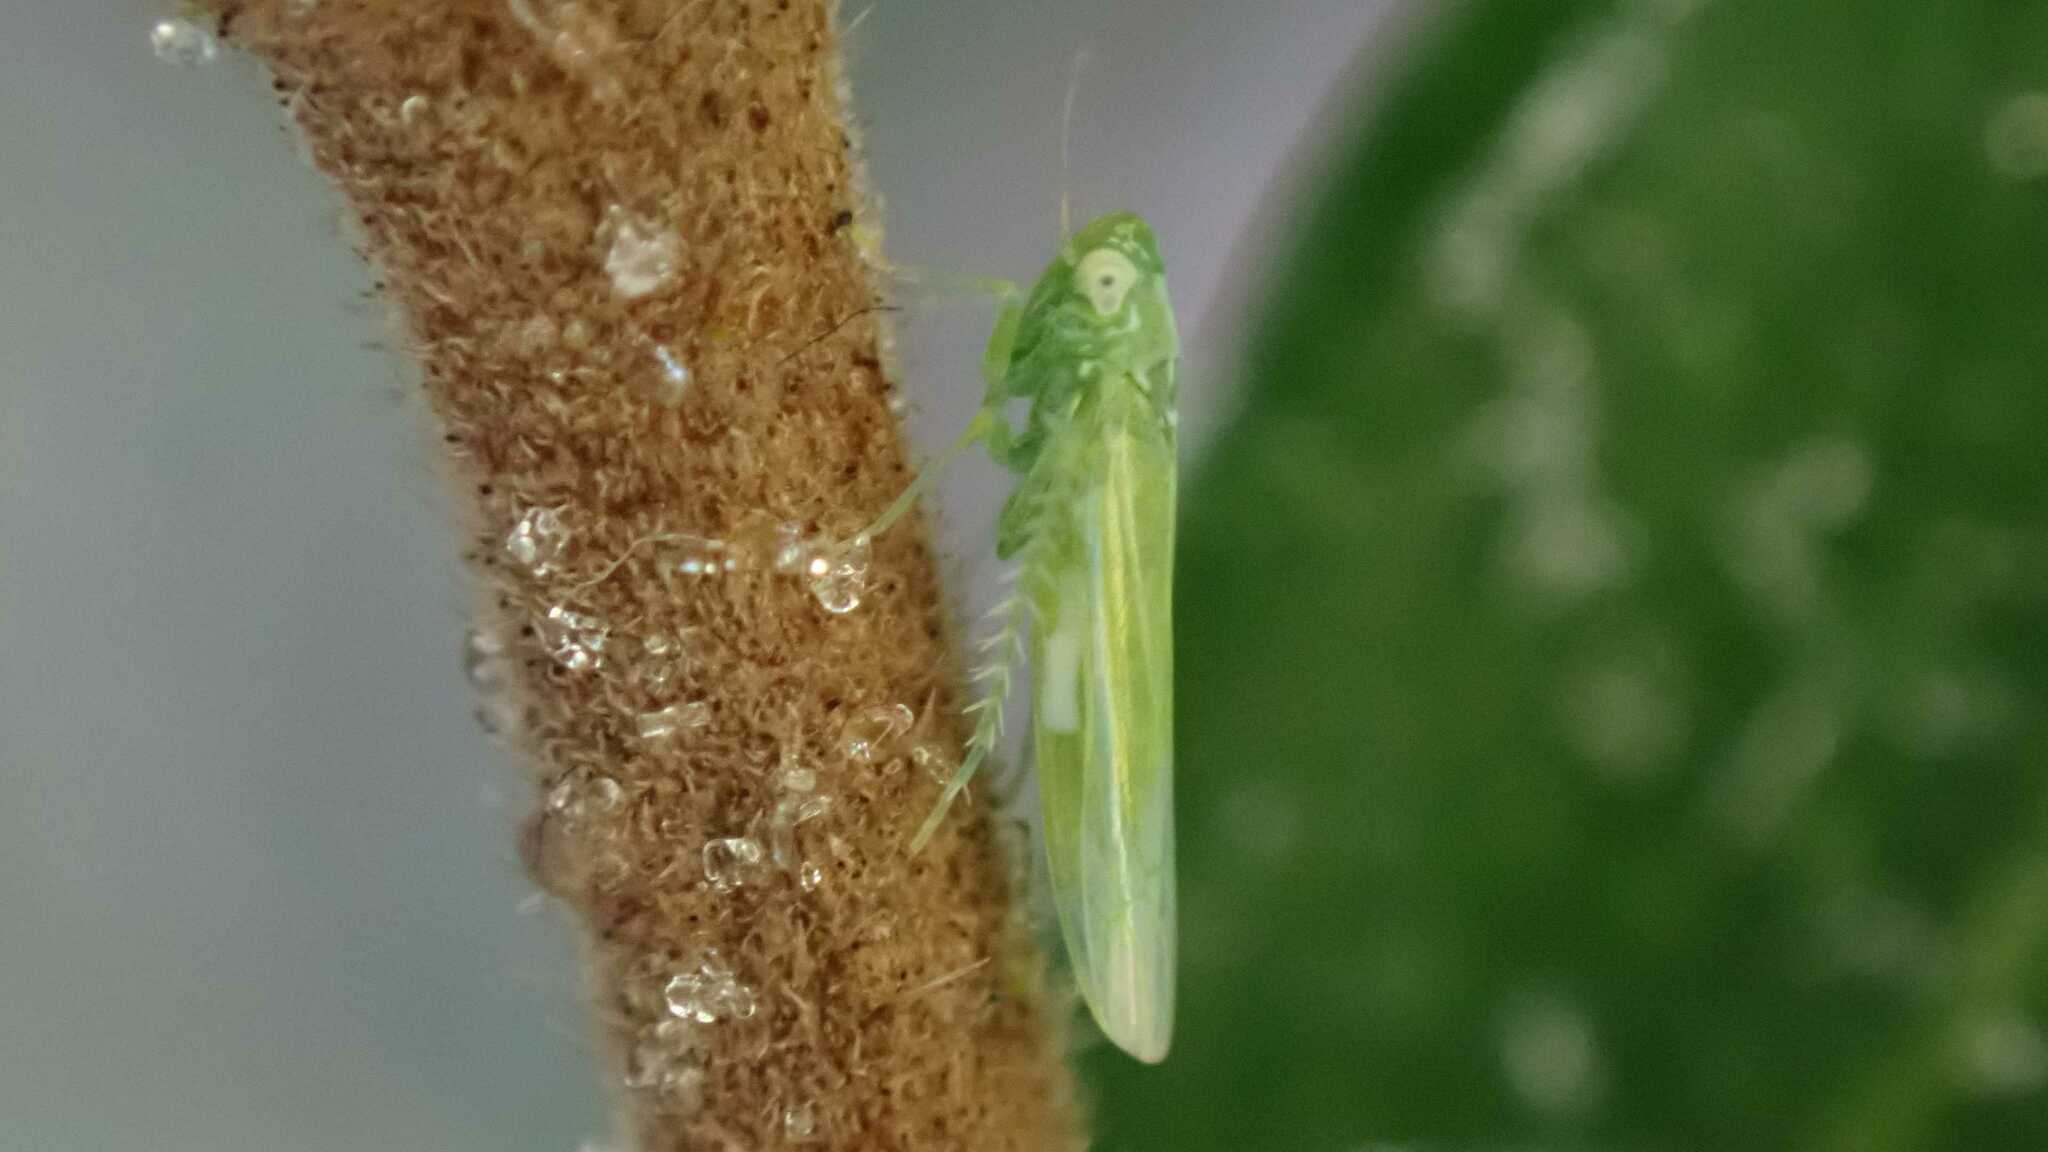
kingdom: Animalia
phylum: Arthropoda
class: Insecta
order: Hemiptera
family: Cicadellidae
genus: Hebata
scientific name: Hebata vitis
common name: The smaller green leafhopper
